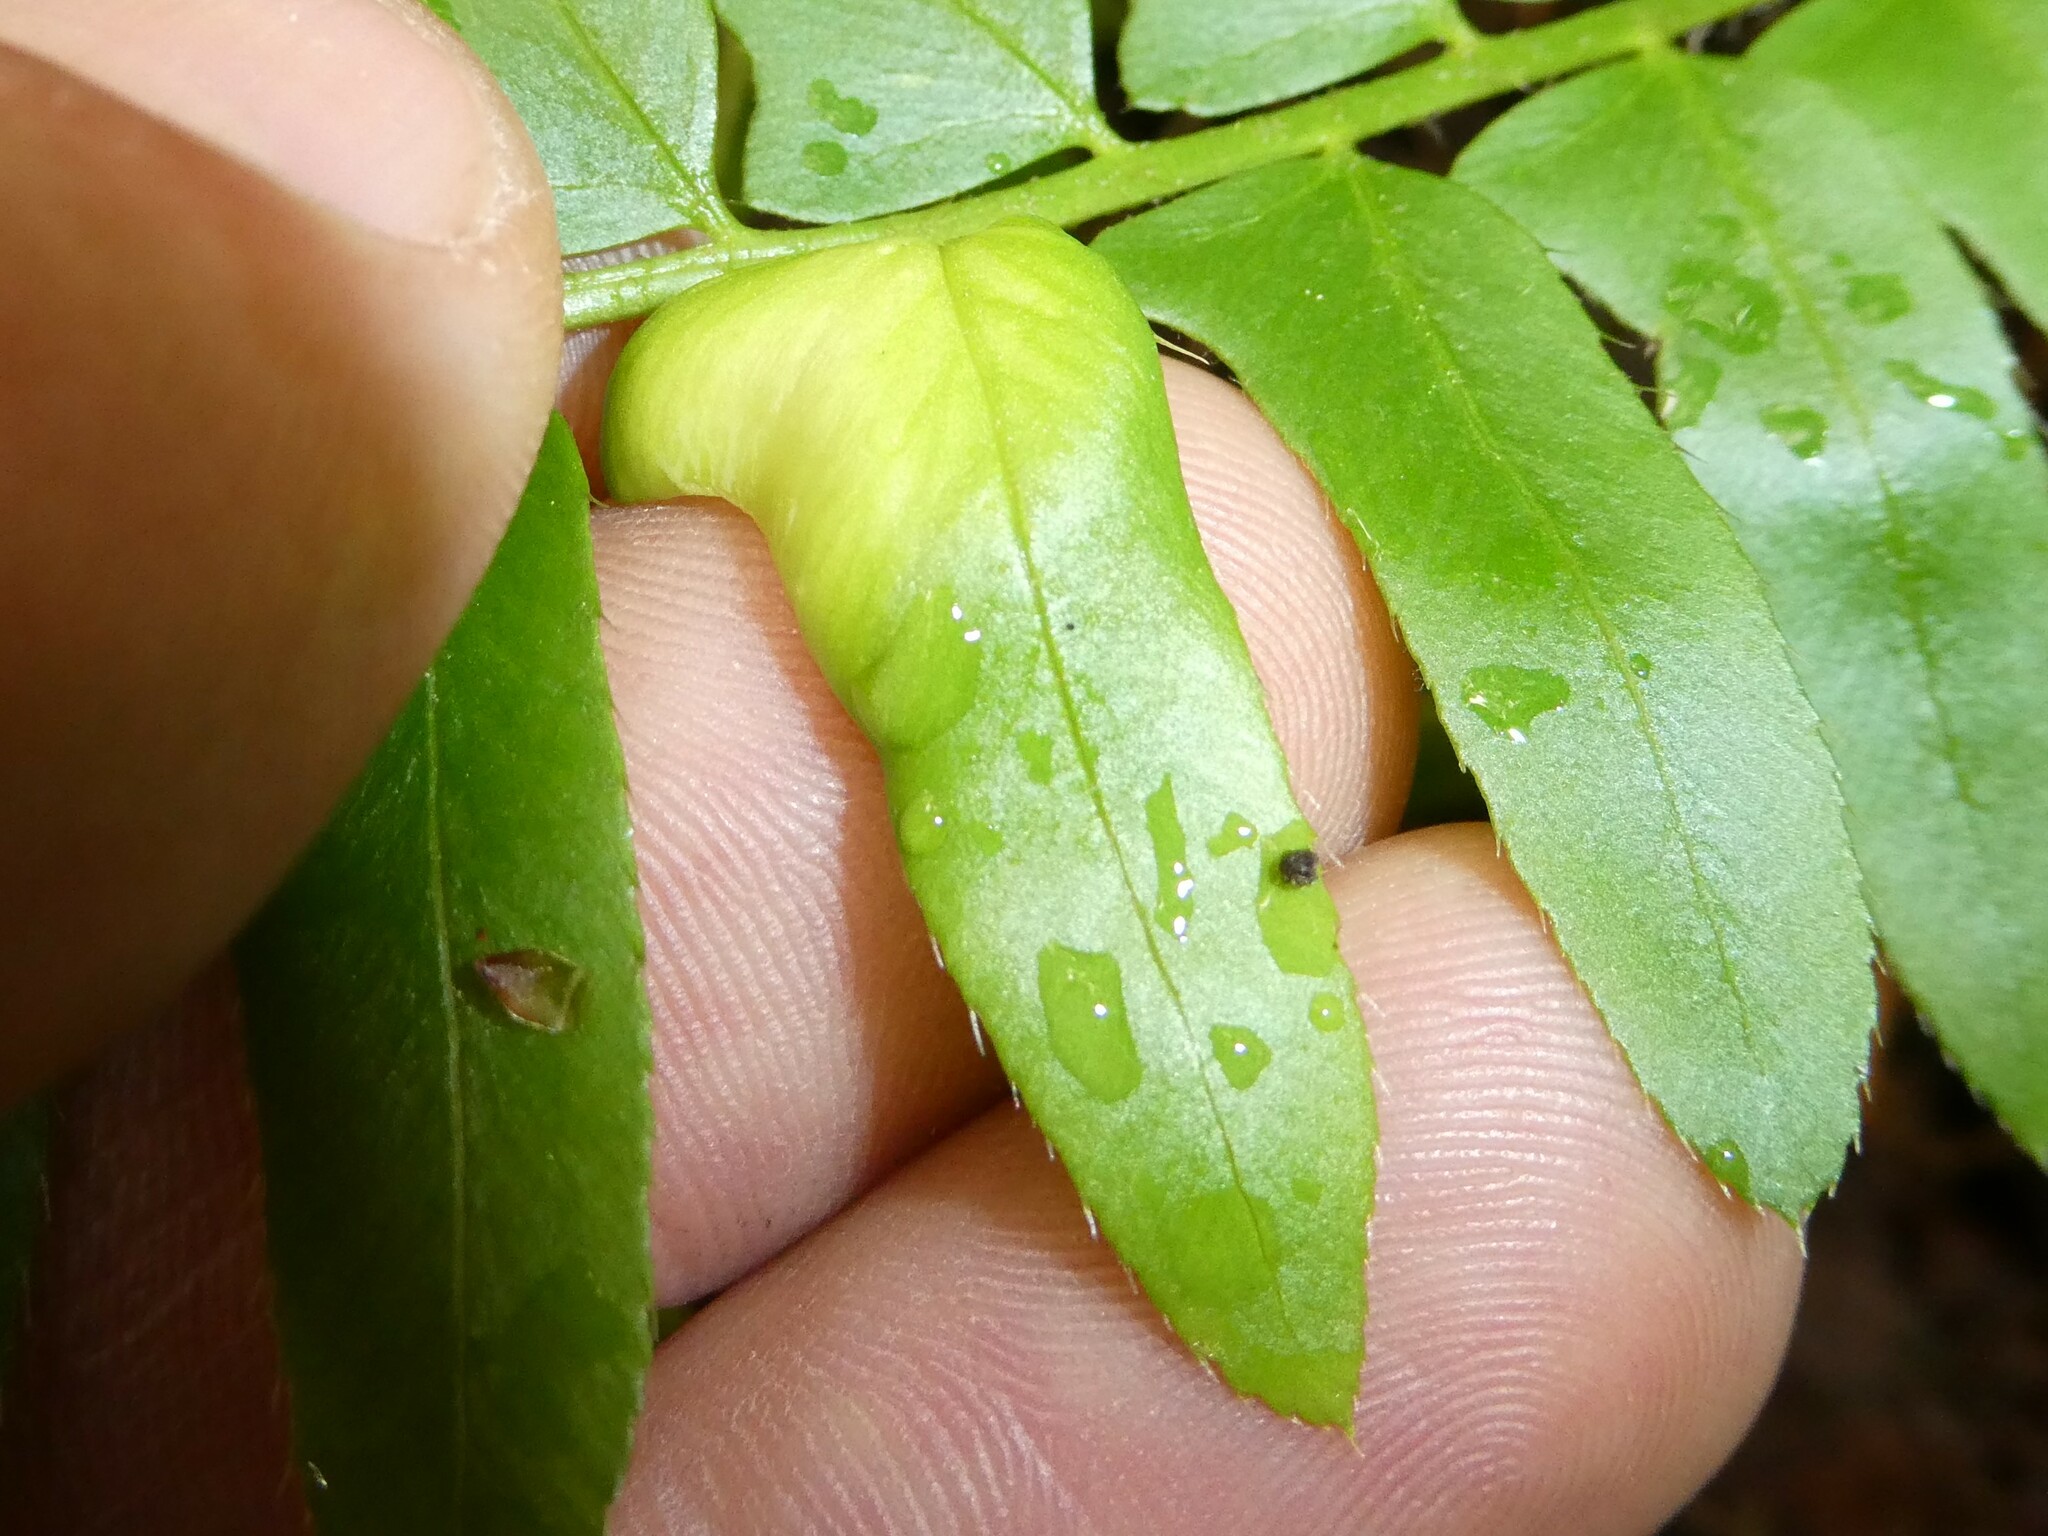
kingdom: Fungi
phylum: Ascomycota
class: Taphrinomycetes
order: Taphrinales
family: Taphrinaceae
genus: Taphrina
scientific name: Taphrina polystichi
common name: Christmas fern leaf curl
